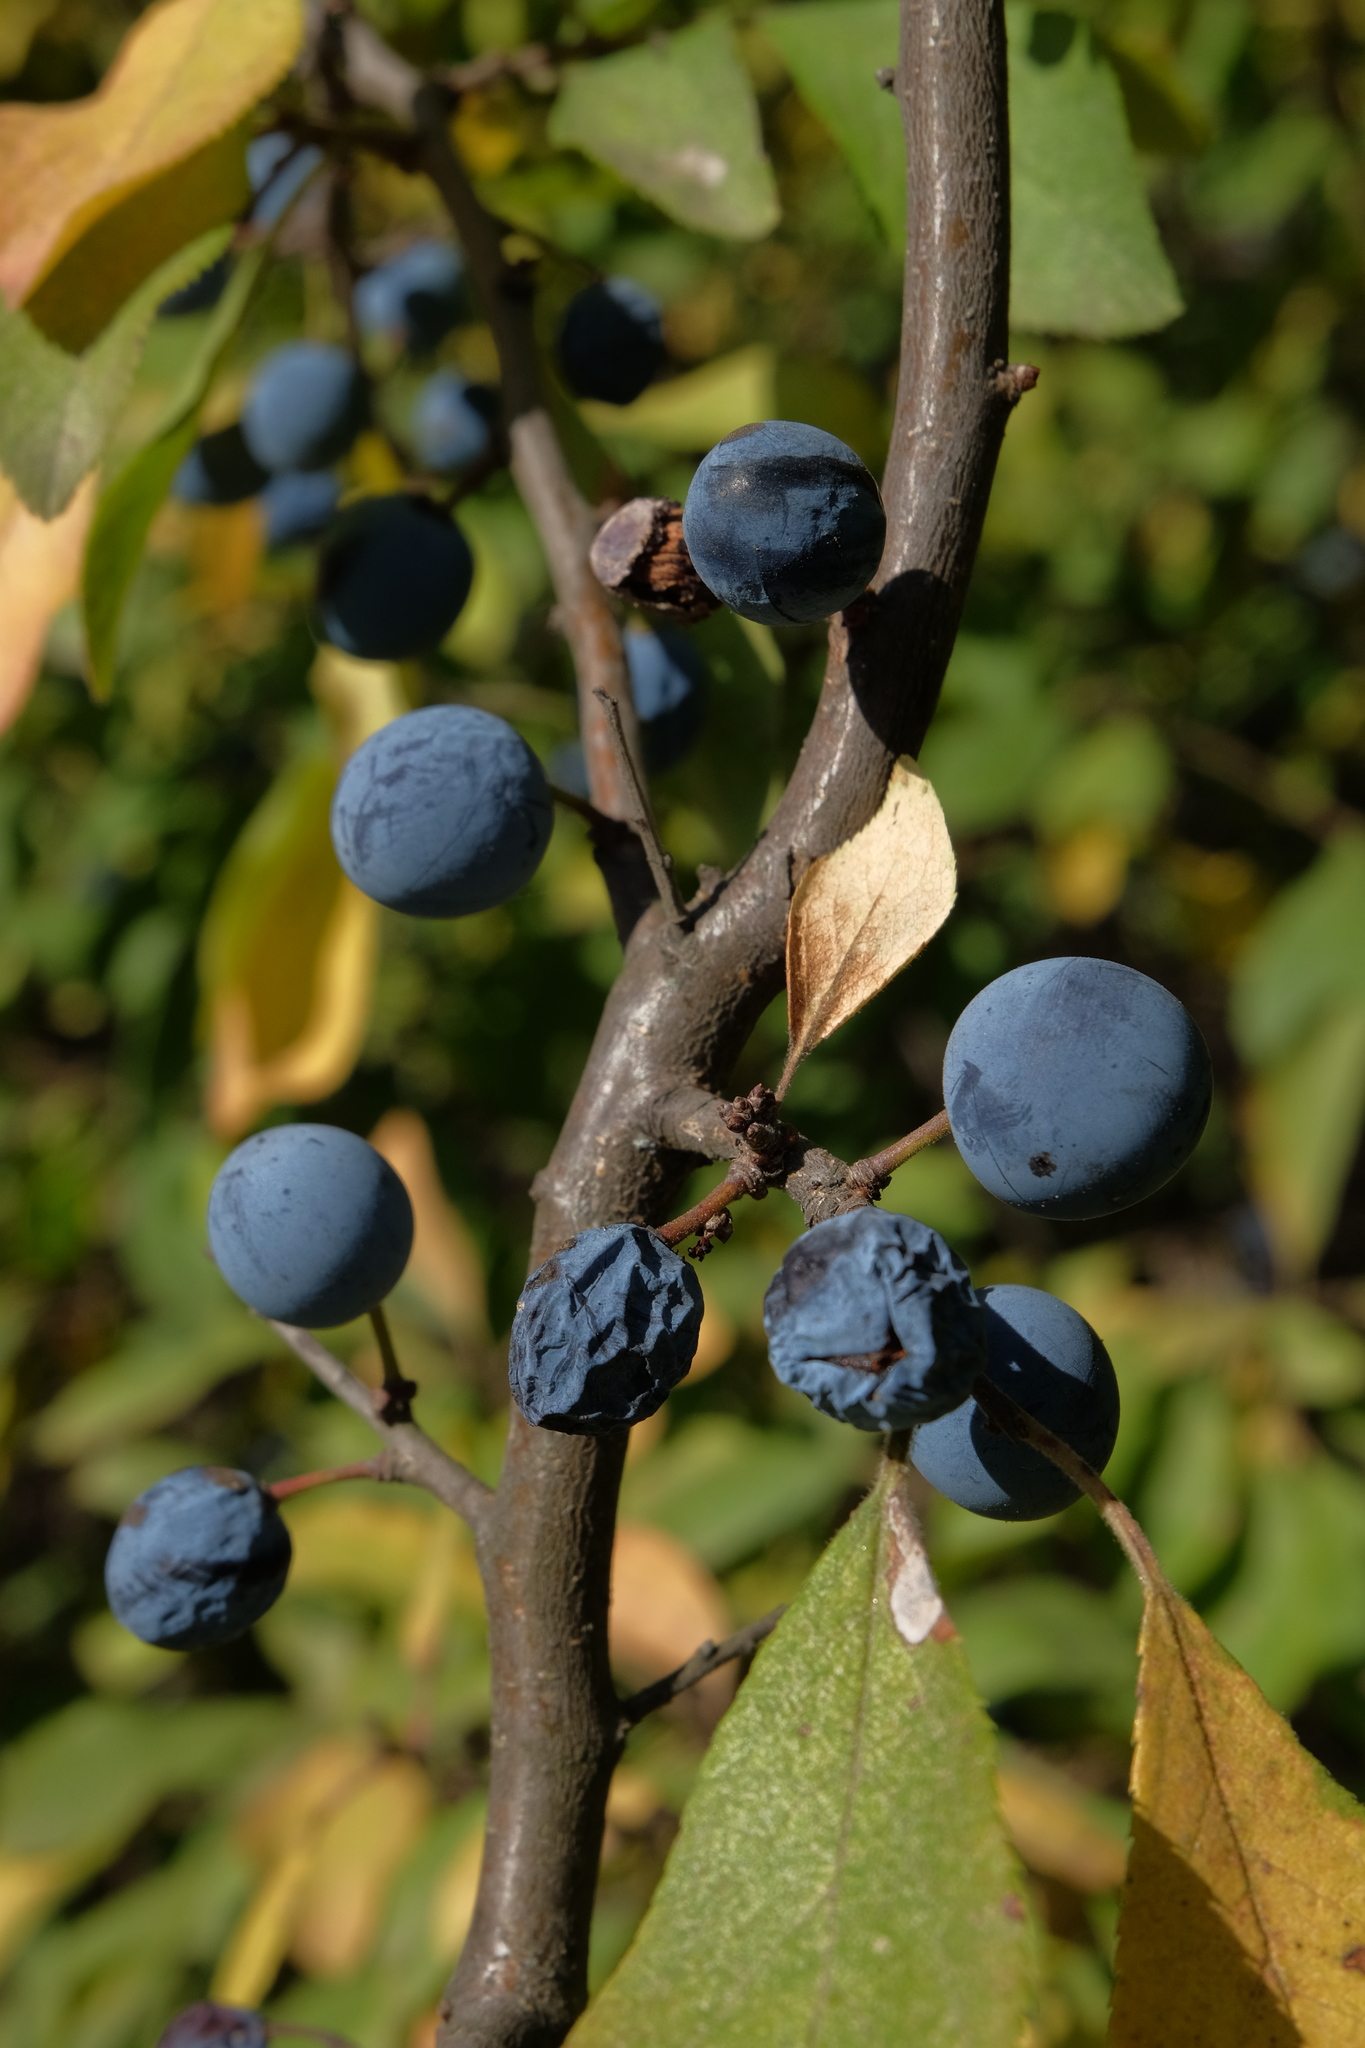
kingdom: Plantae
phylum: Tracheophyta
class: Magnoliopsida
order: Rosales
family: Rosaceae
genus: Prunus
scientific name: Prunus spinosa
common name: Blackthorn
